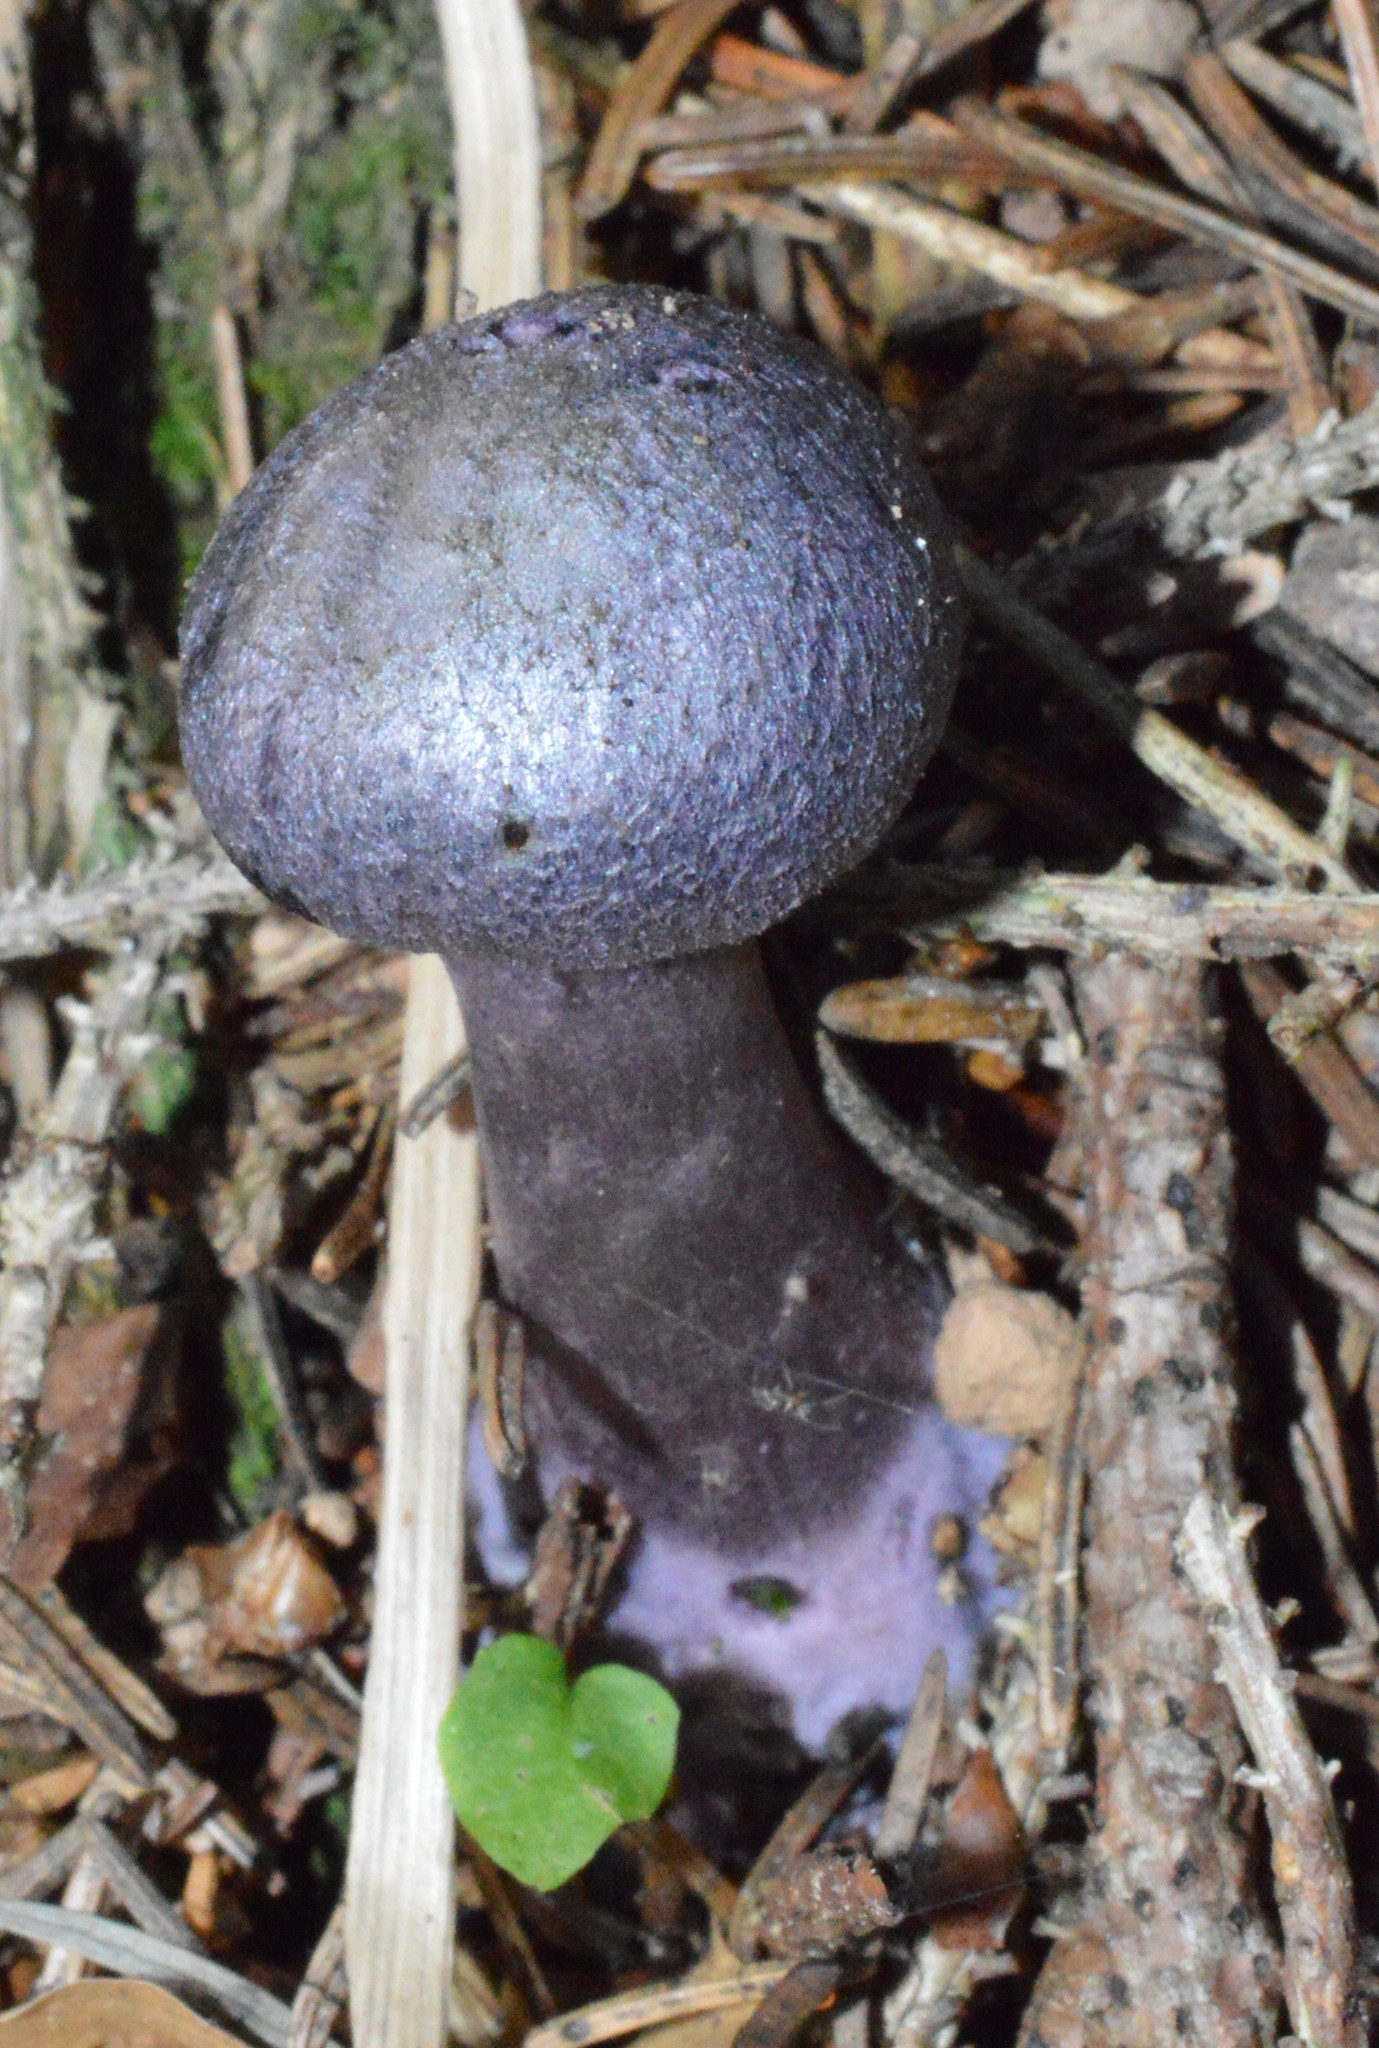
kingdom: Fungi
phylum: Basidiomycota
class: Agaricomycetes
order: Agaricales
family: Cortinariaceae
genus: Cortinarius
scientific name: Cortinarius violaceus
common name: Violet webcap
